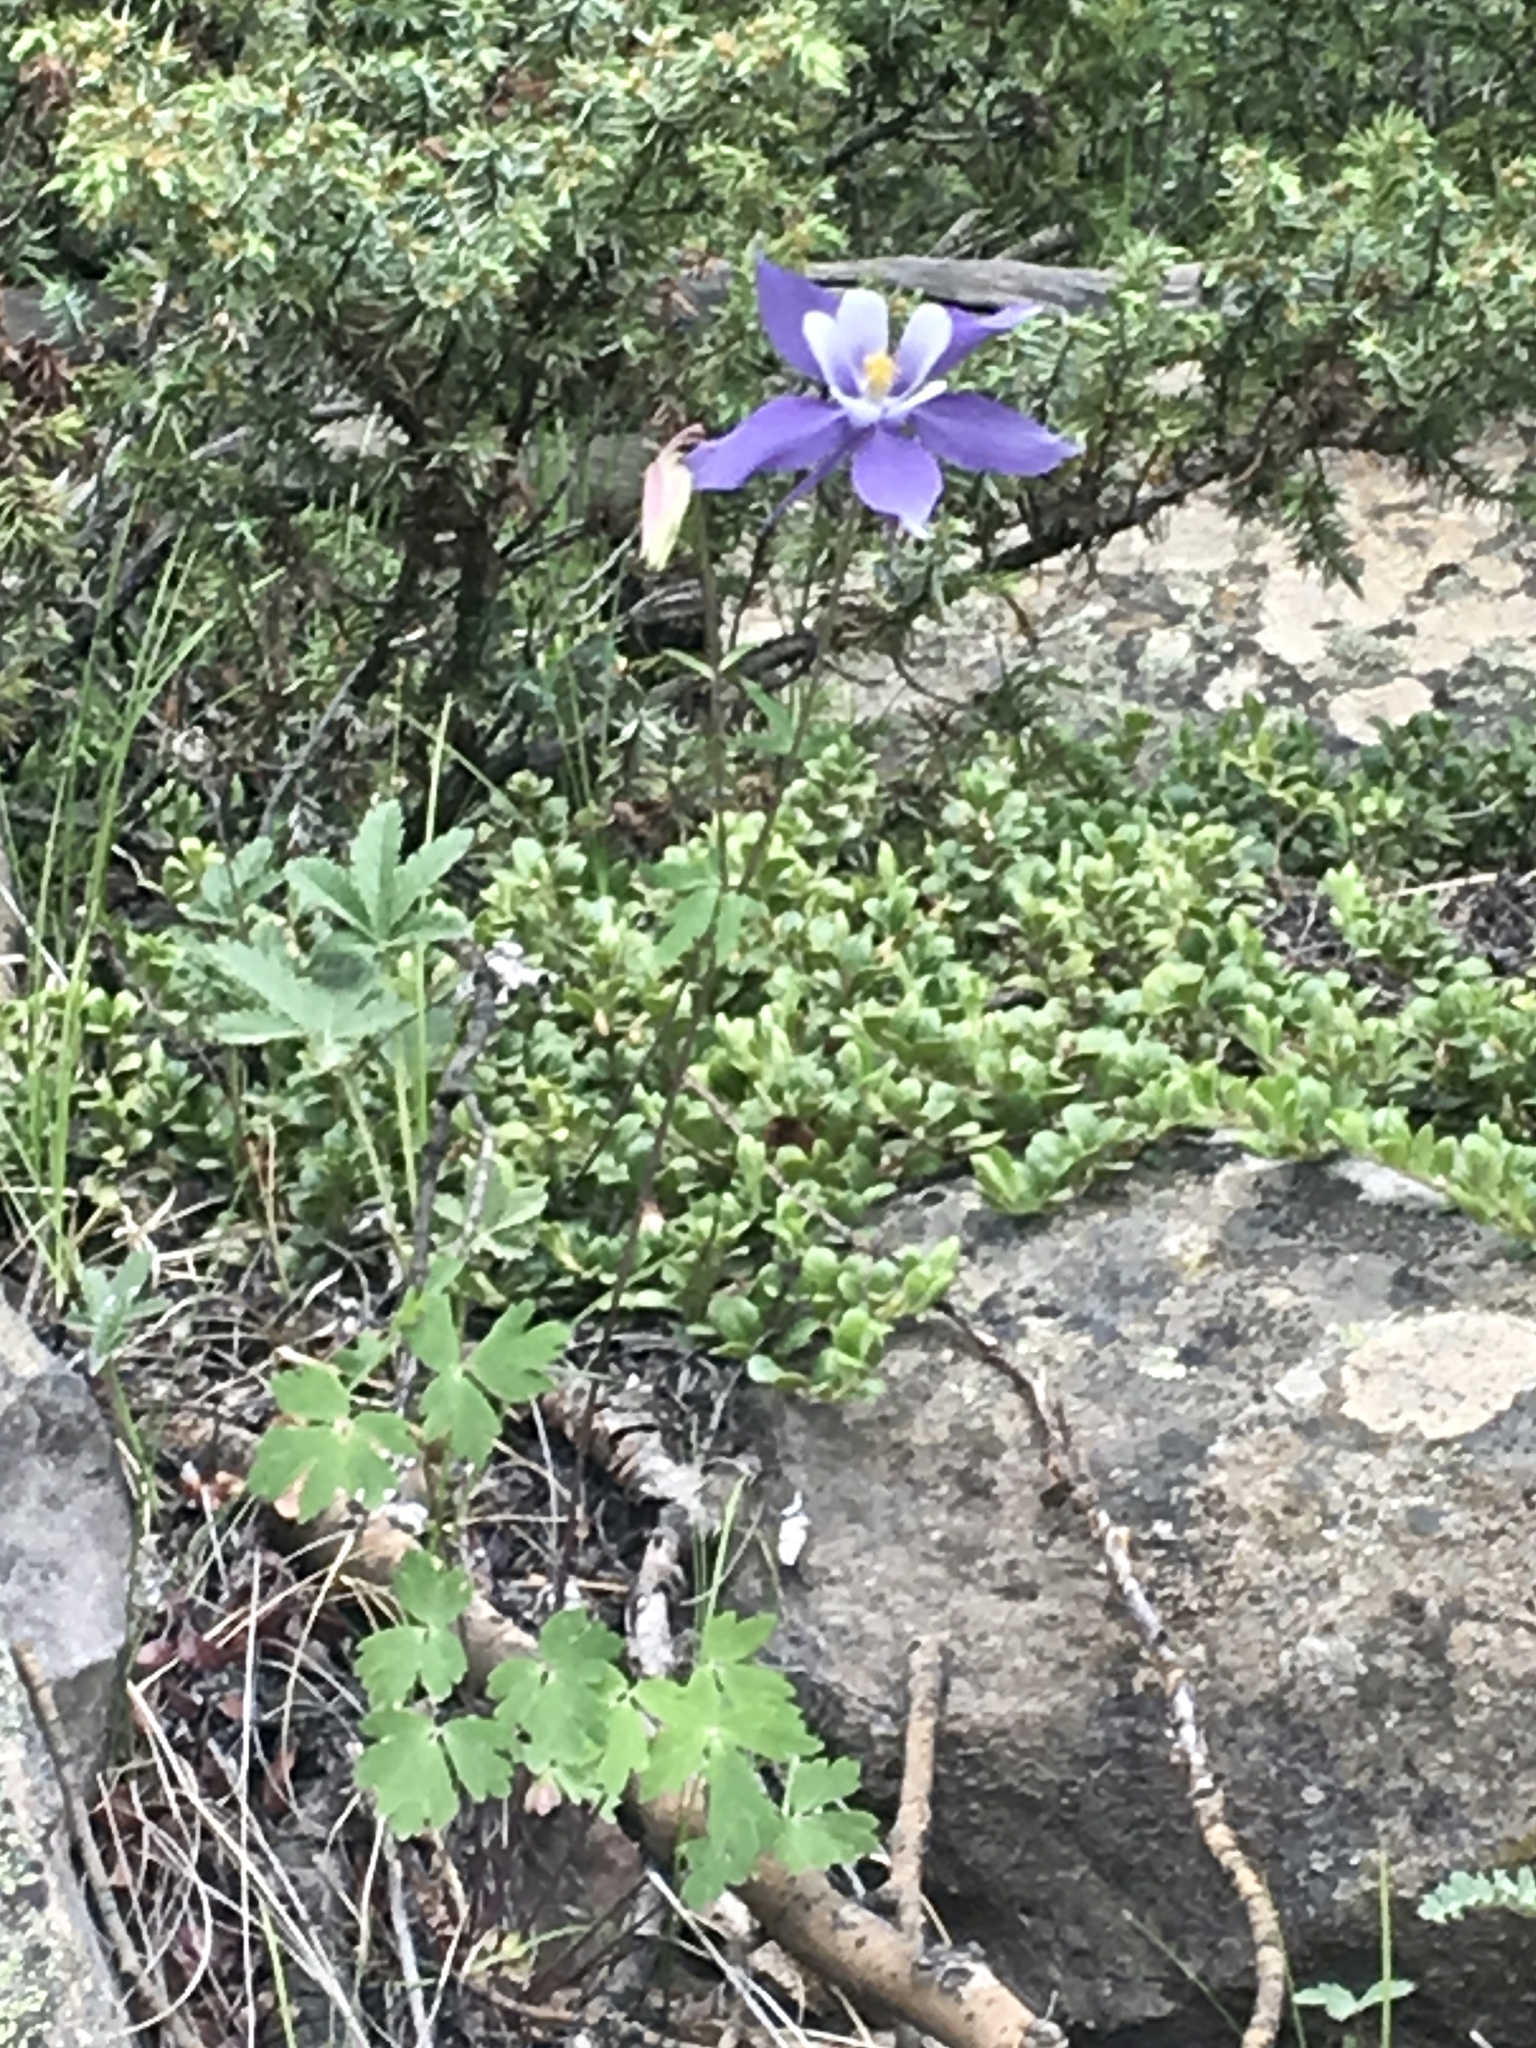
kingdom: Plantae
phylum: Tracheophyta
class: Magnoliopsida
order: Ranunculales
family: Ranunculaceae
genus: Aquilegia
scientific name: Aquilegia coerulea
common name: Rocky mountain columbine
